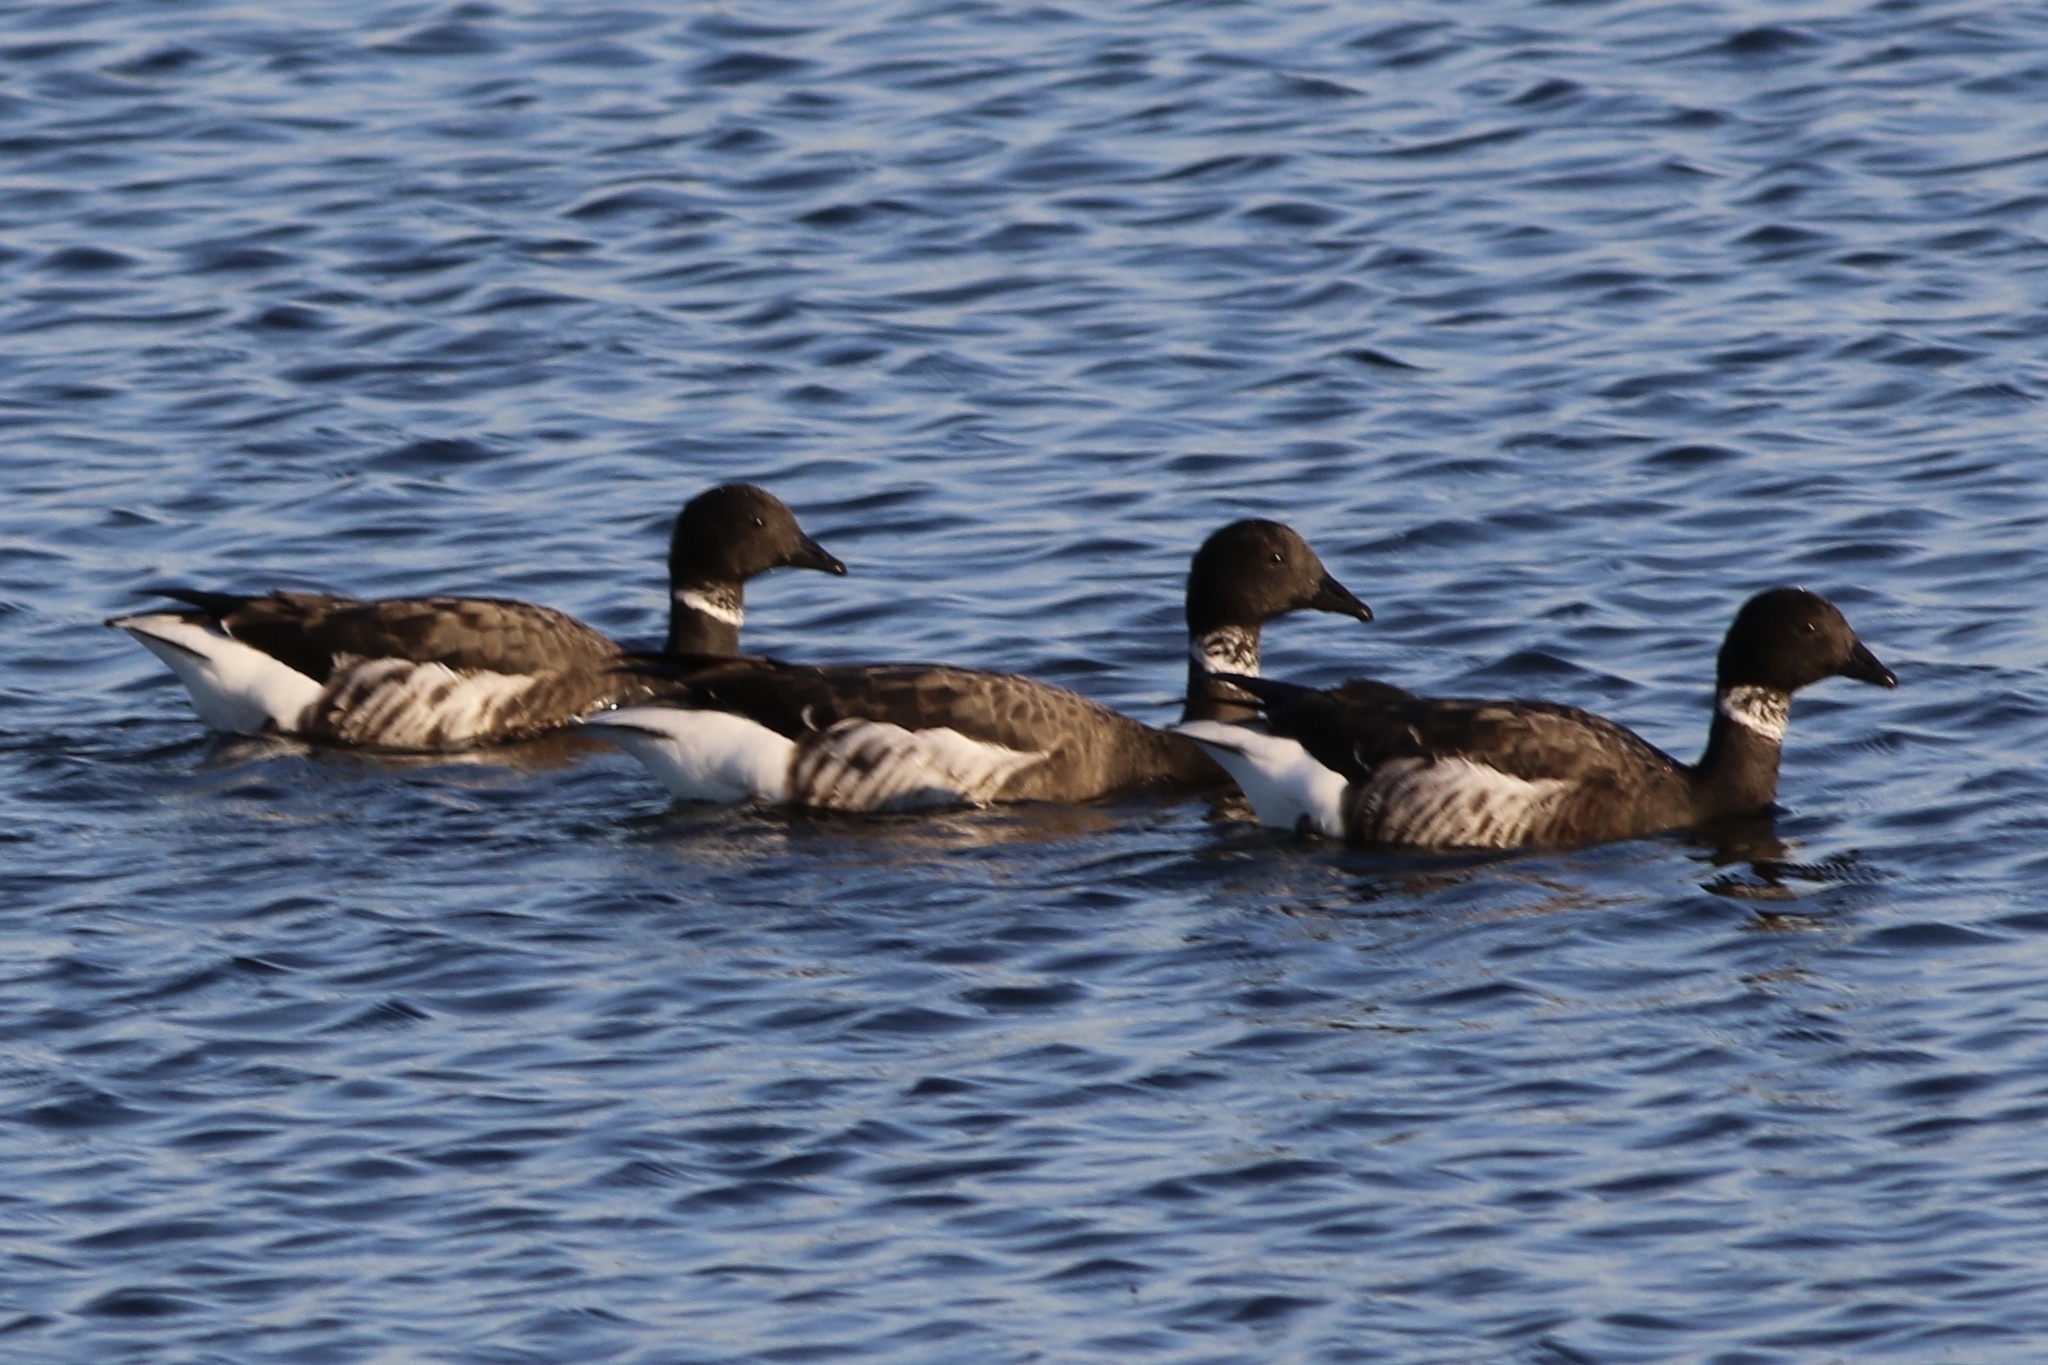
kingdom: Animalia
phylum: Chordata
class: Aves
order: Anseriformes
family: Anatidae
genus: Branta
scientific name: Branta bernicla
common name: Brant goose
